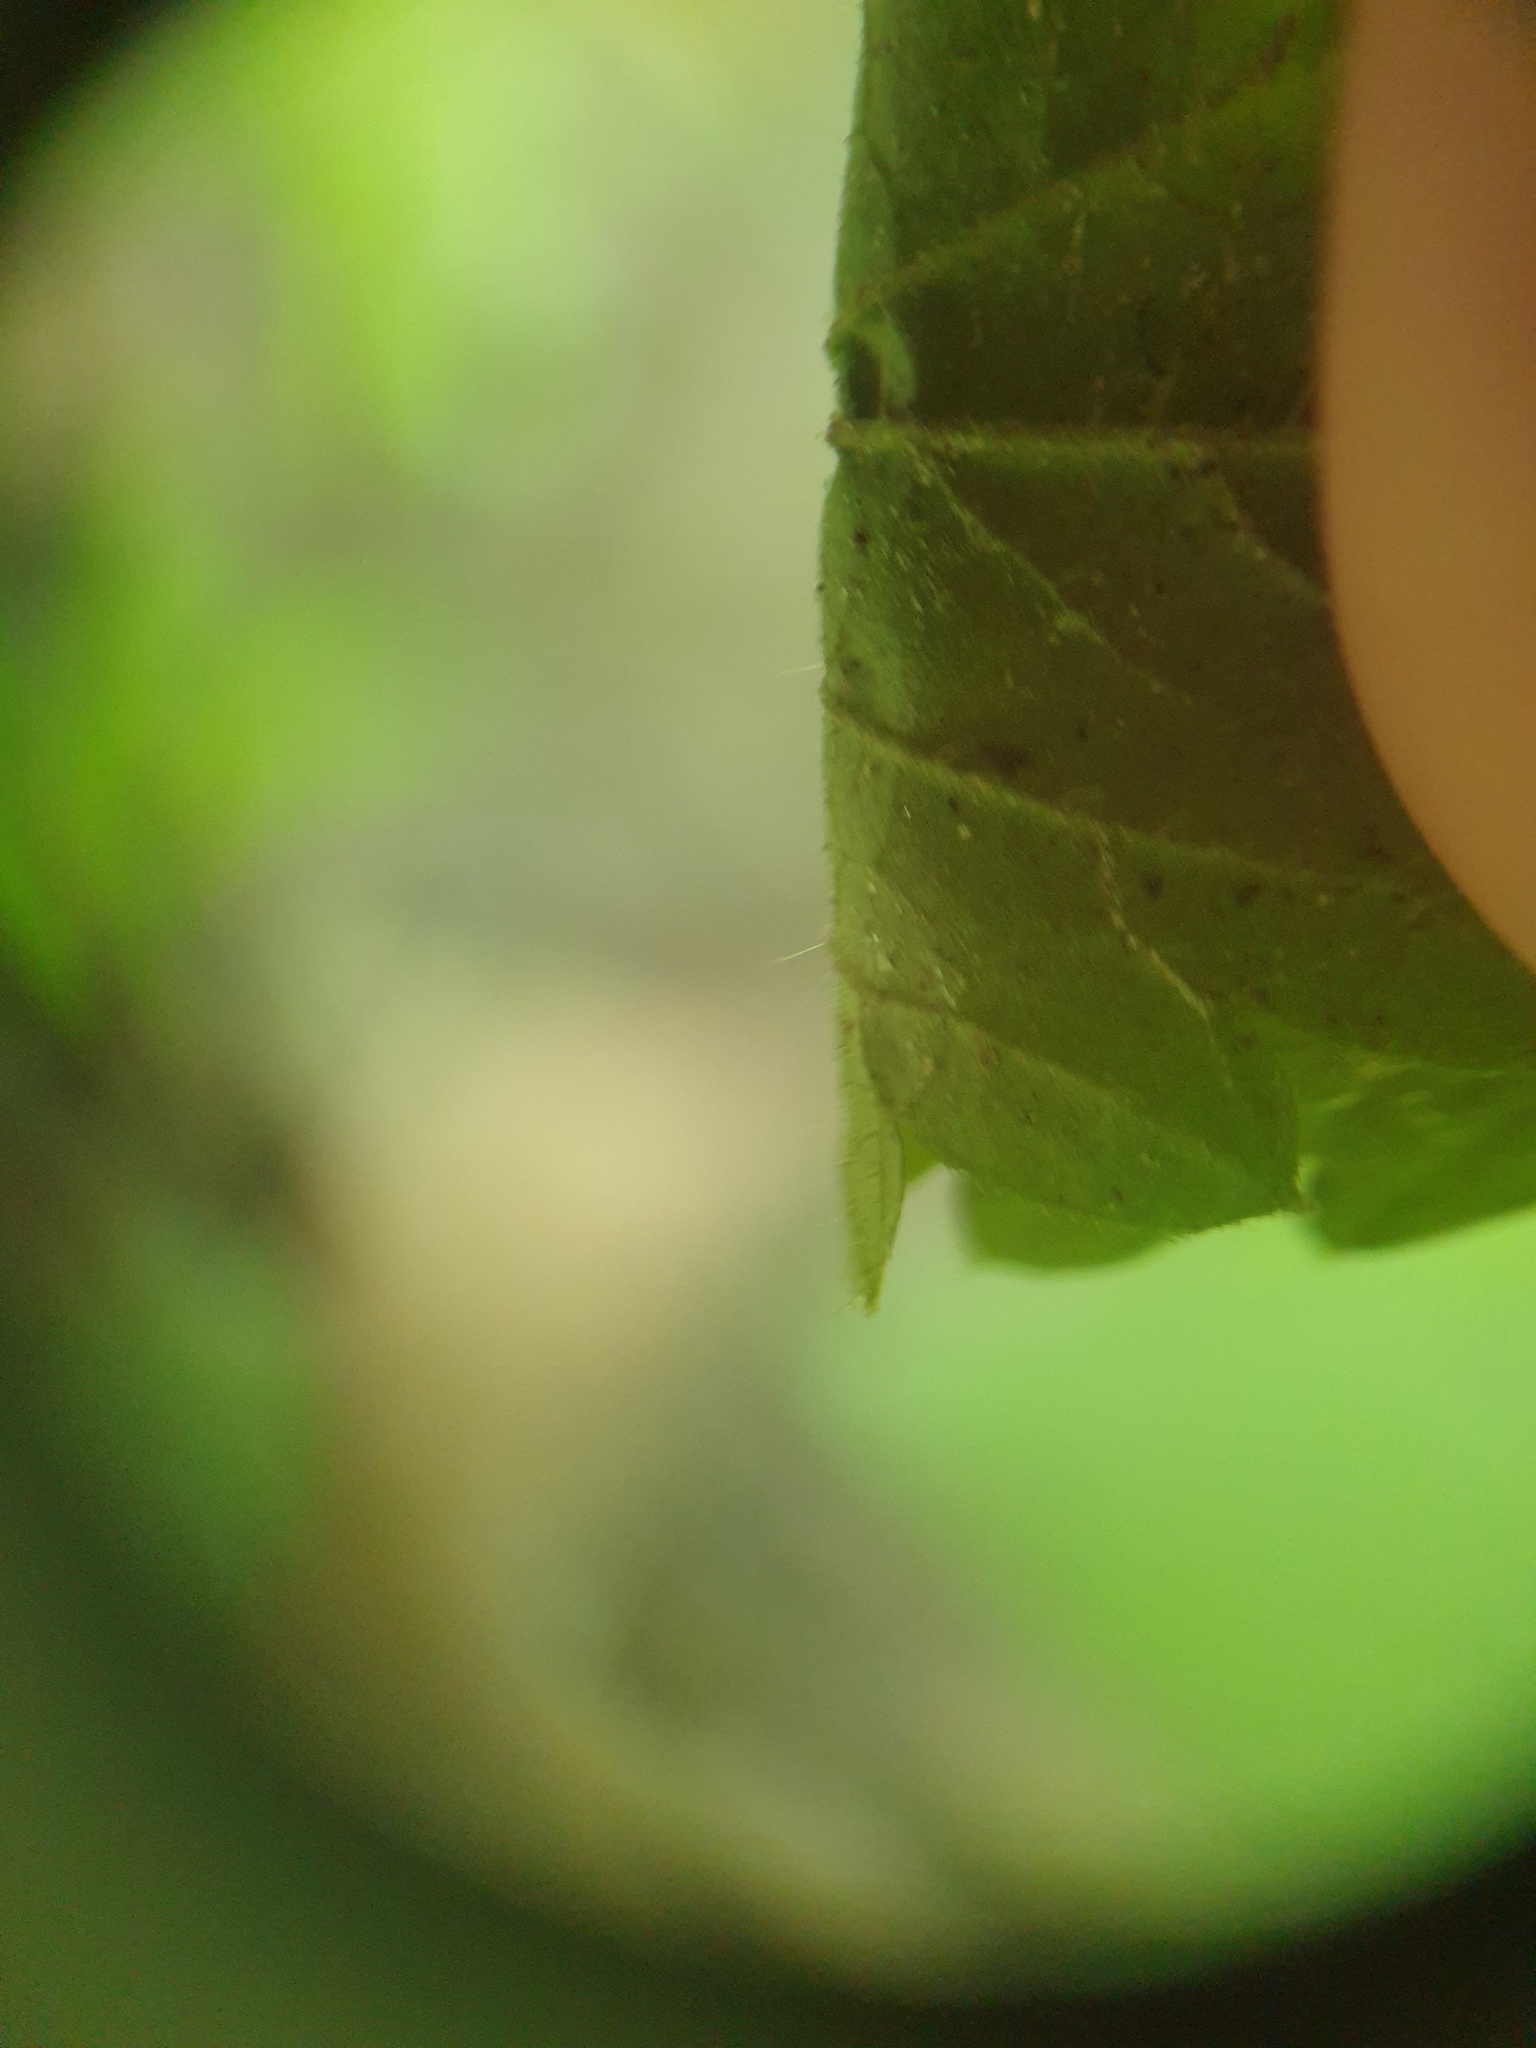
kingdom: Plantae
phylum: Tracheophyta
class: Magnoliopsida
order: Rosales
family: Rosaceae
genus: Agrimonia
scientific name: Agrimonia gryposepala
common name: Common agrimony
